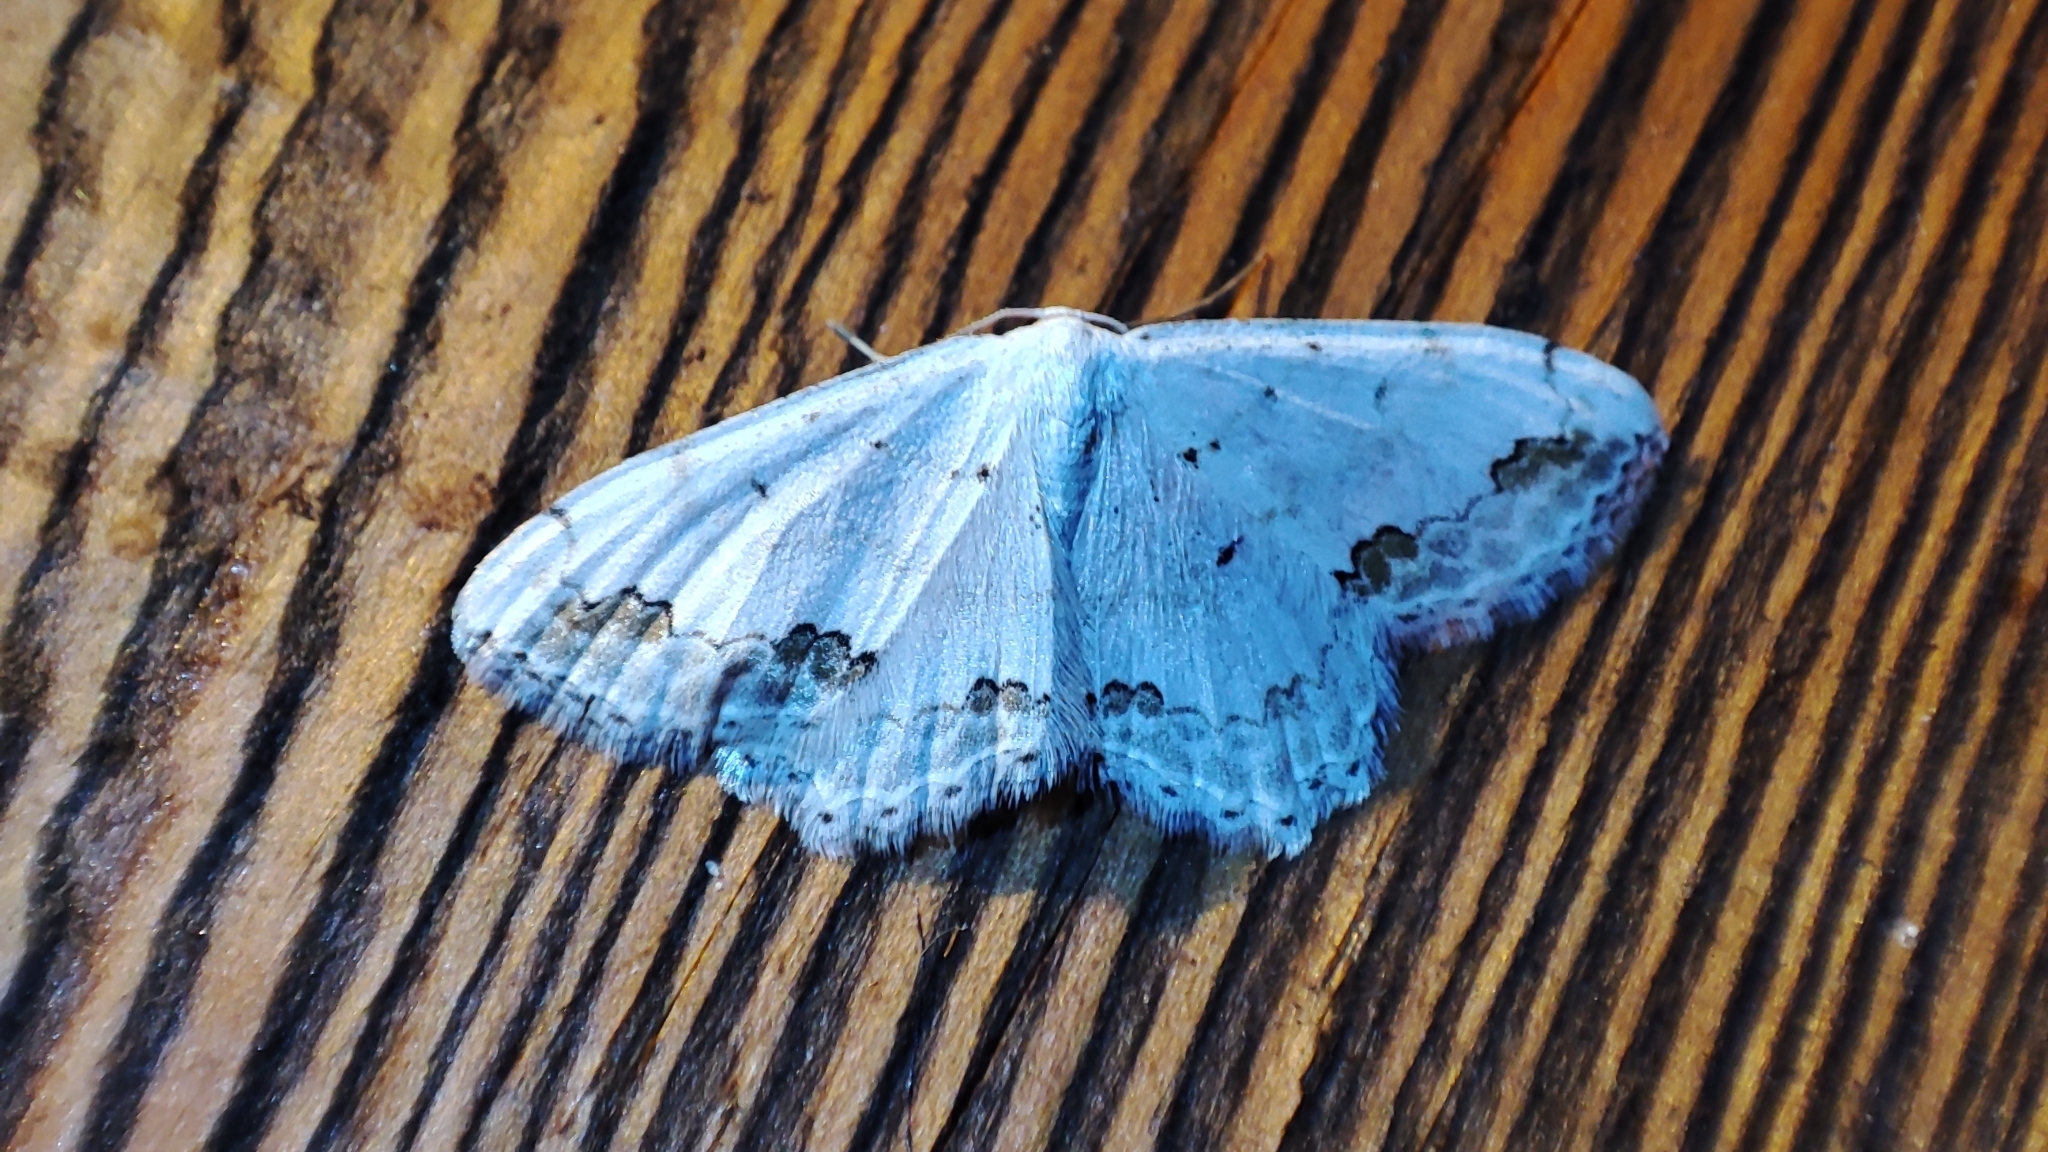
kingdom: Animalia
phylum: Arthropoda
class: Insecta
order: Lepidoptera
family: Geometridae
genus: Scopula
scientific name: Scopula ornata
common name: Lace border
